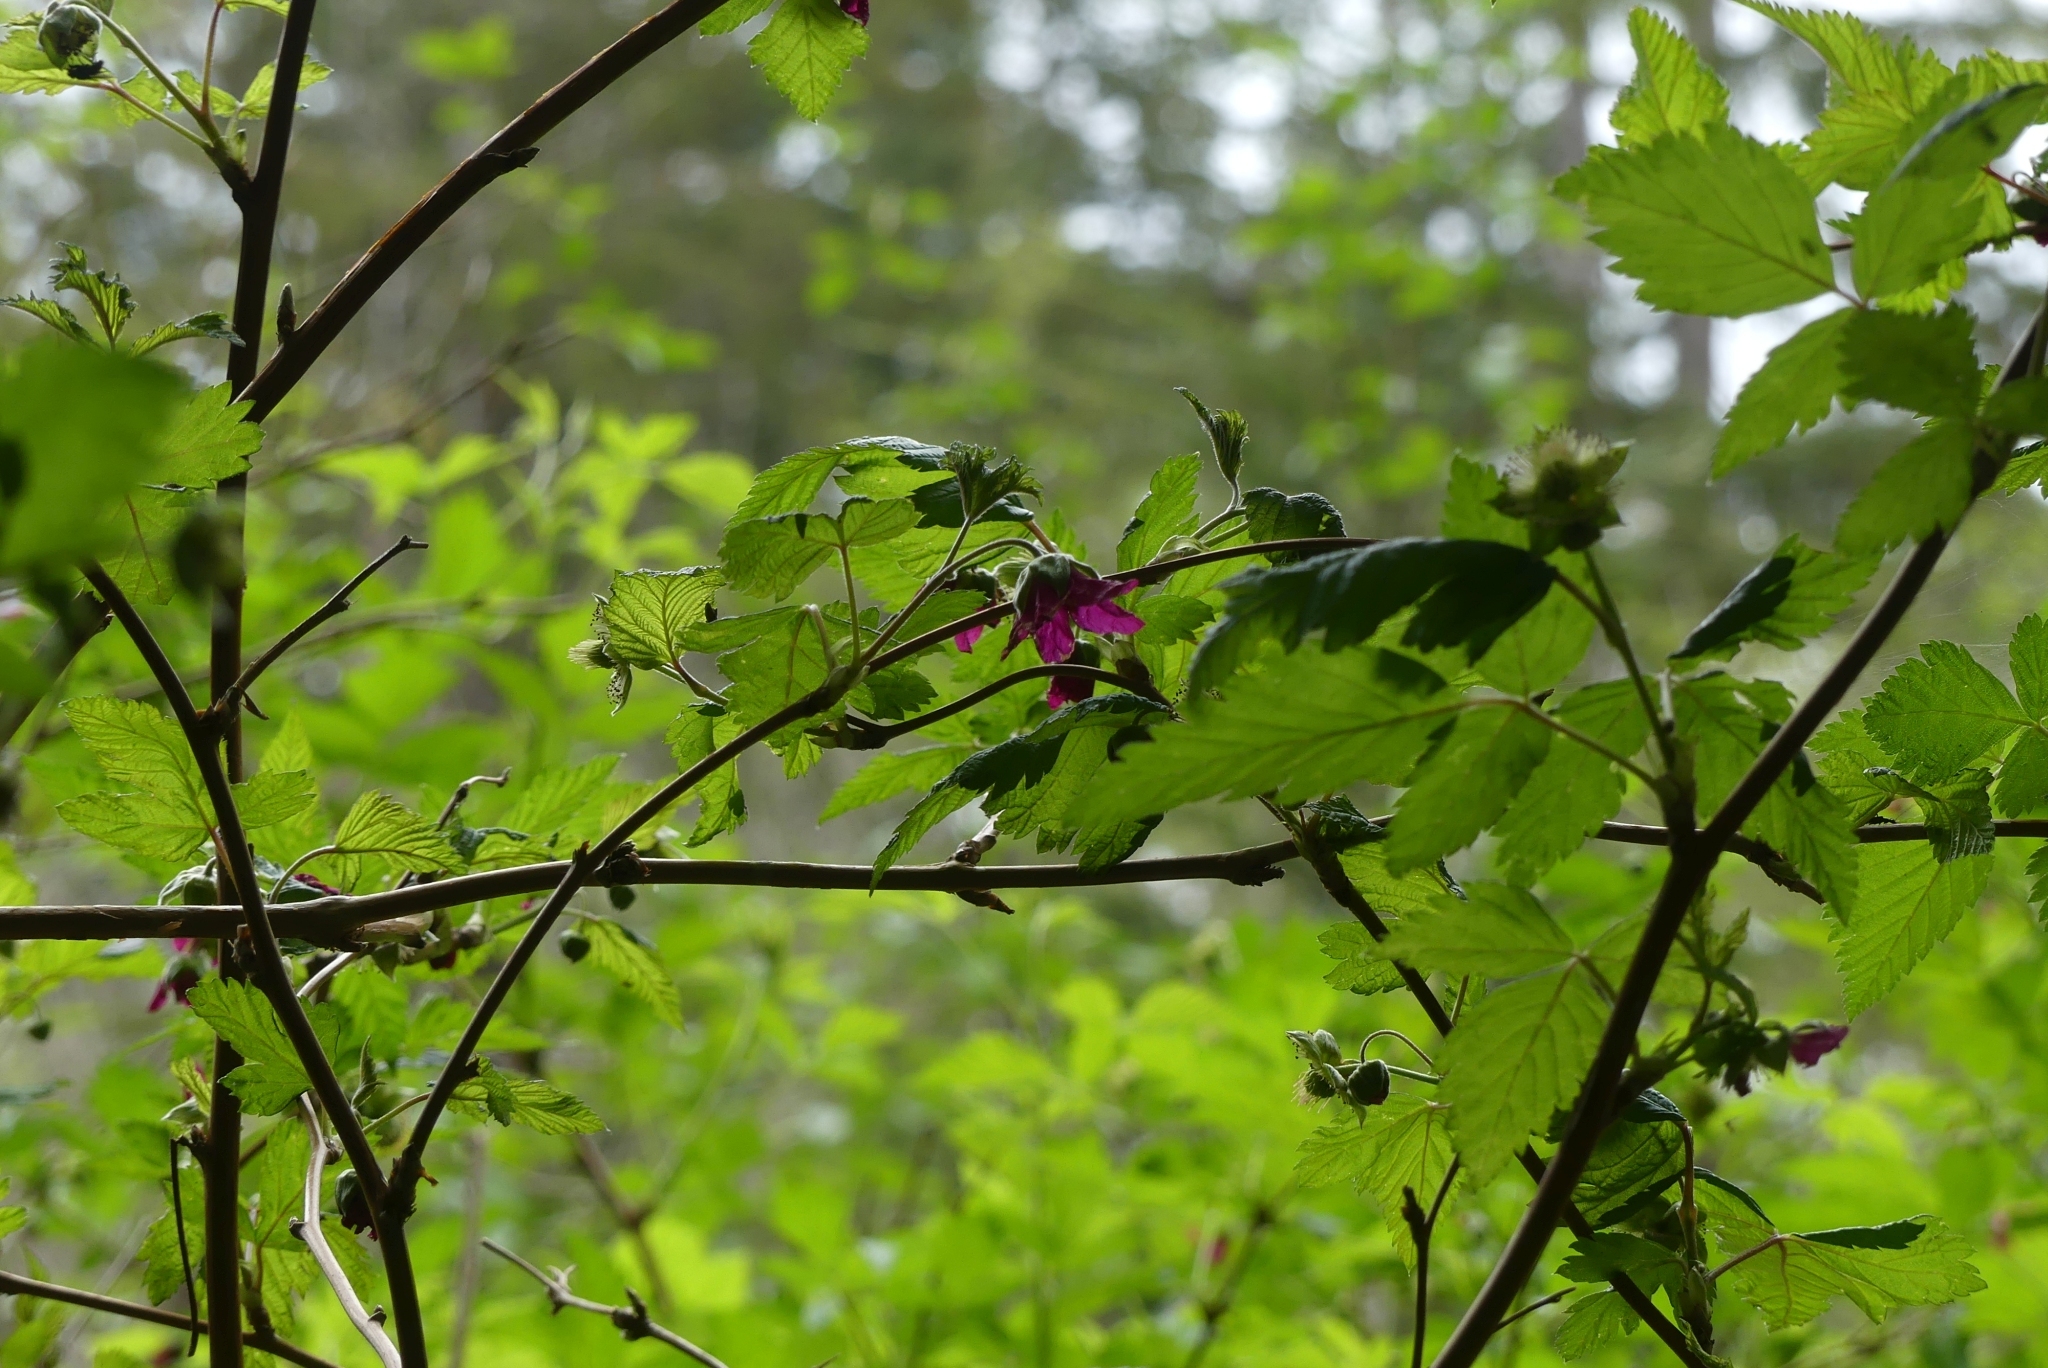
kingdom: Plantae
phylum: Tracheophyta
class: Magnoliopsida
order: Rosales
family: Rosaceae
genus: Rubus
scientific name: Rubus spectabilis
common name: Salmonberry
